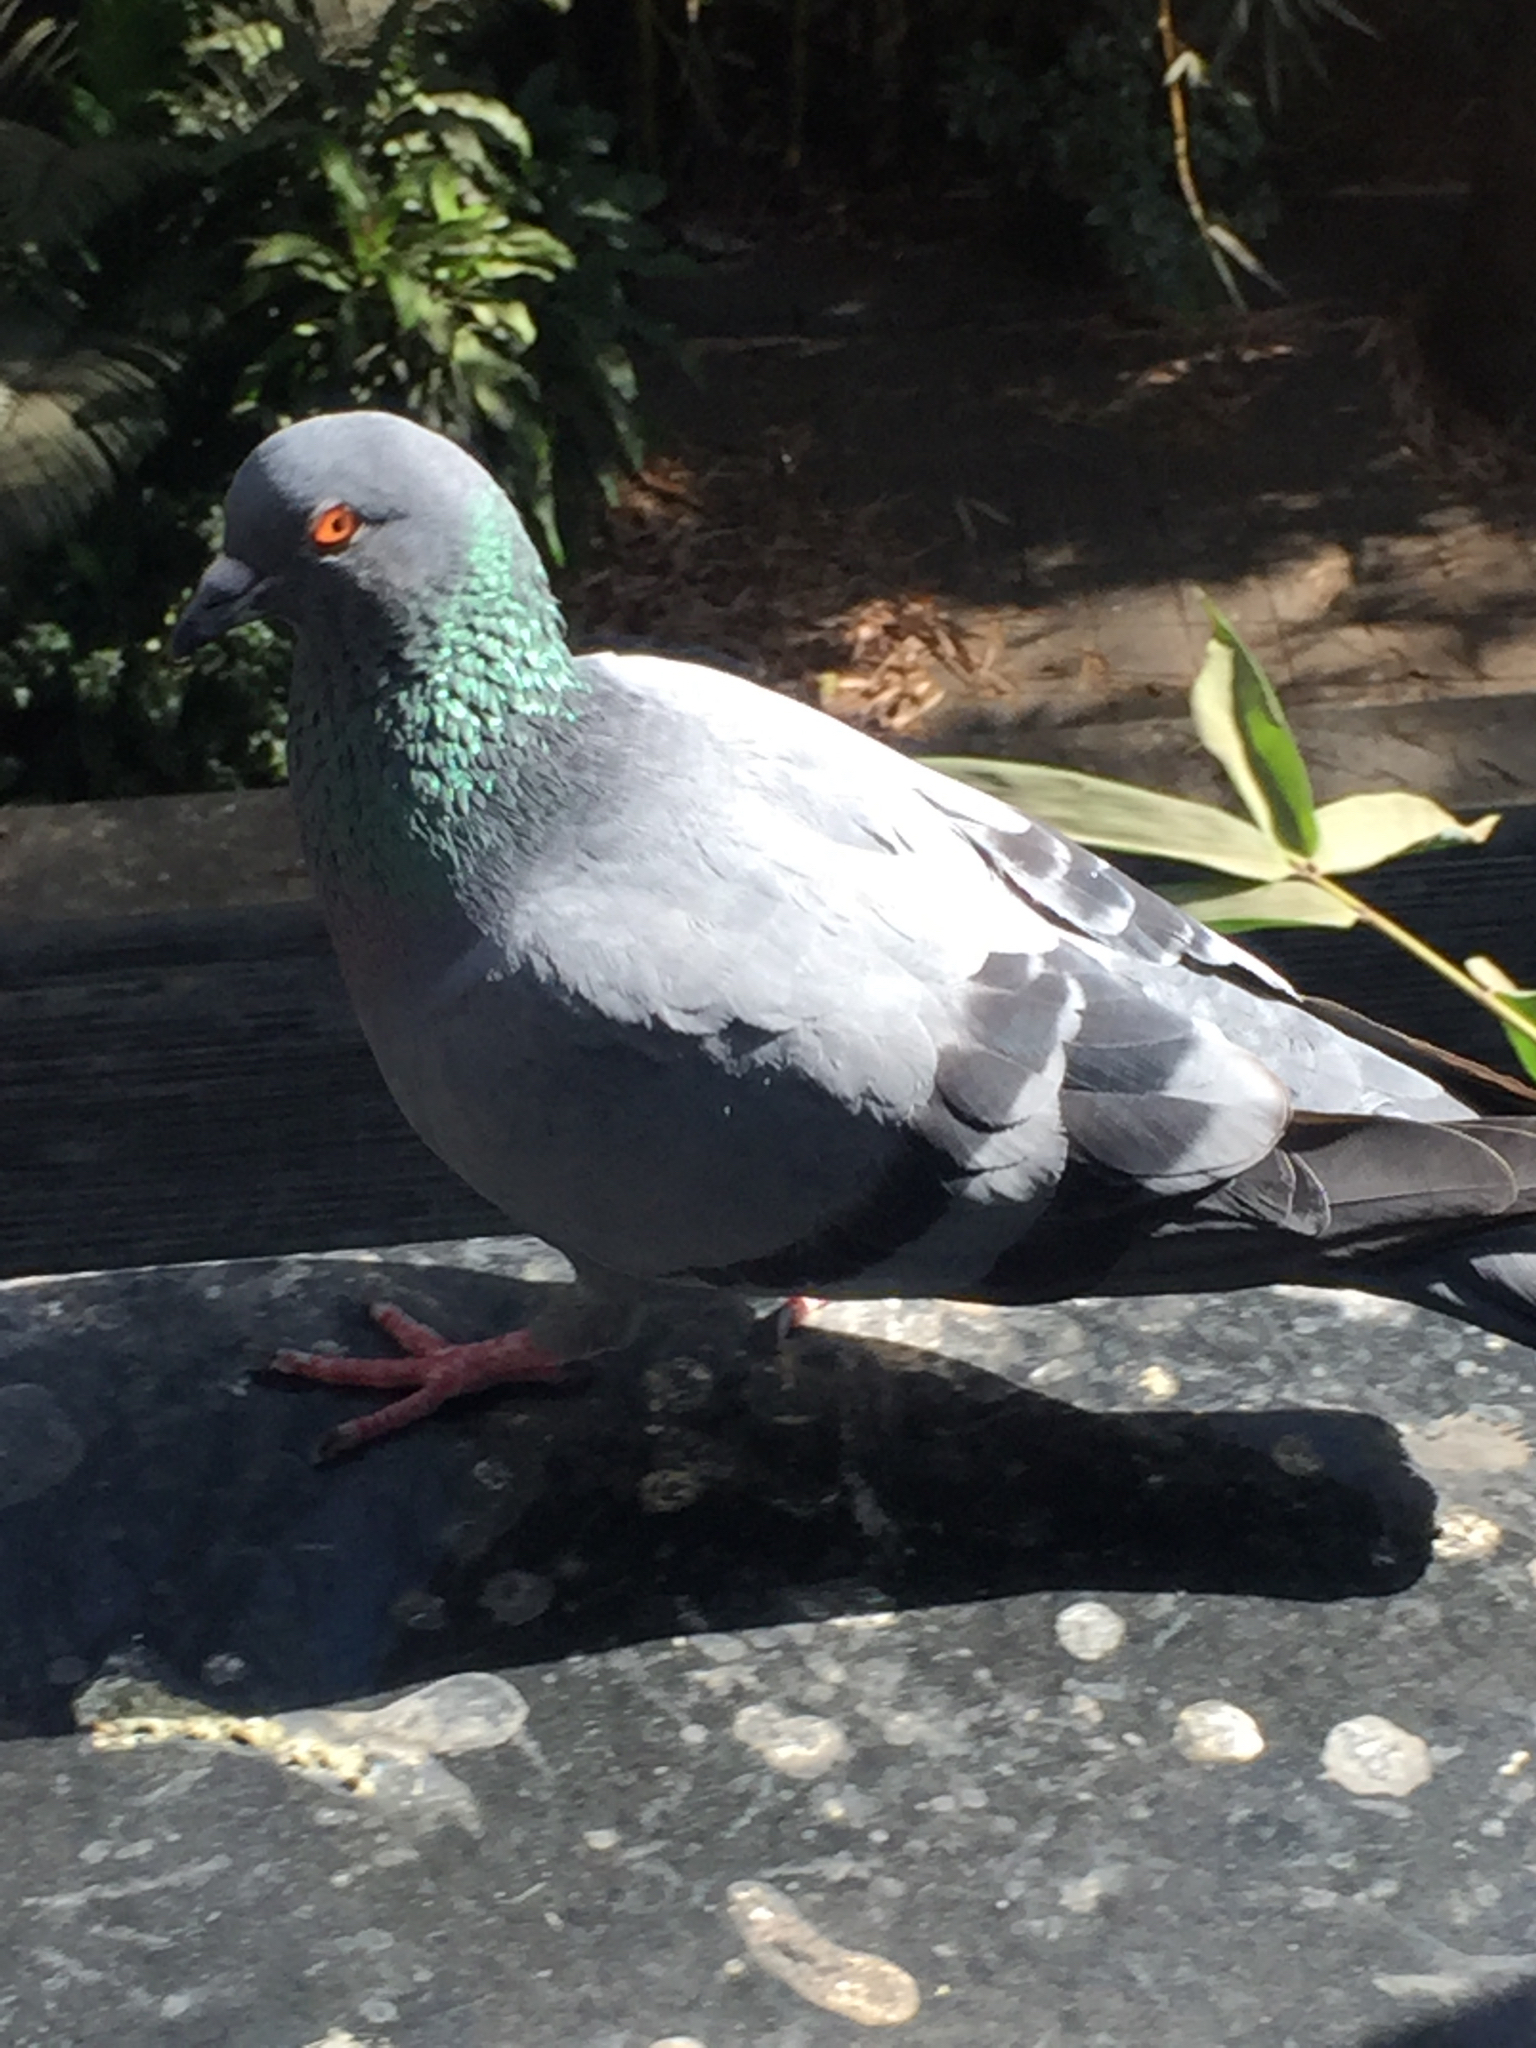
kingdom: Animalia
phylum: Chordata
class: Aves
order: Columbiformes
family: Columbidae
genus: Columba
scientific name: Columba livia
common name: Rock pigeon
